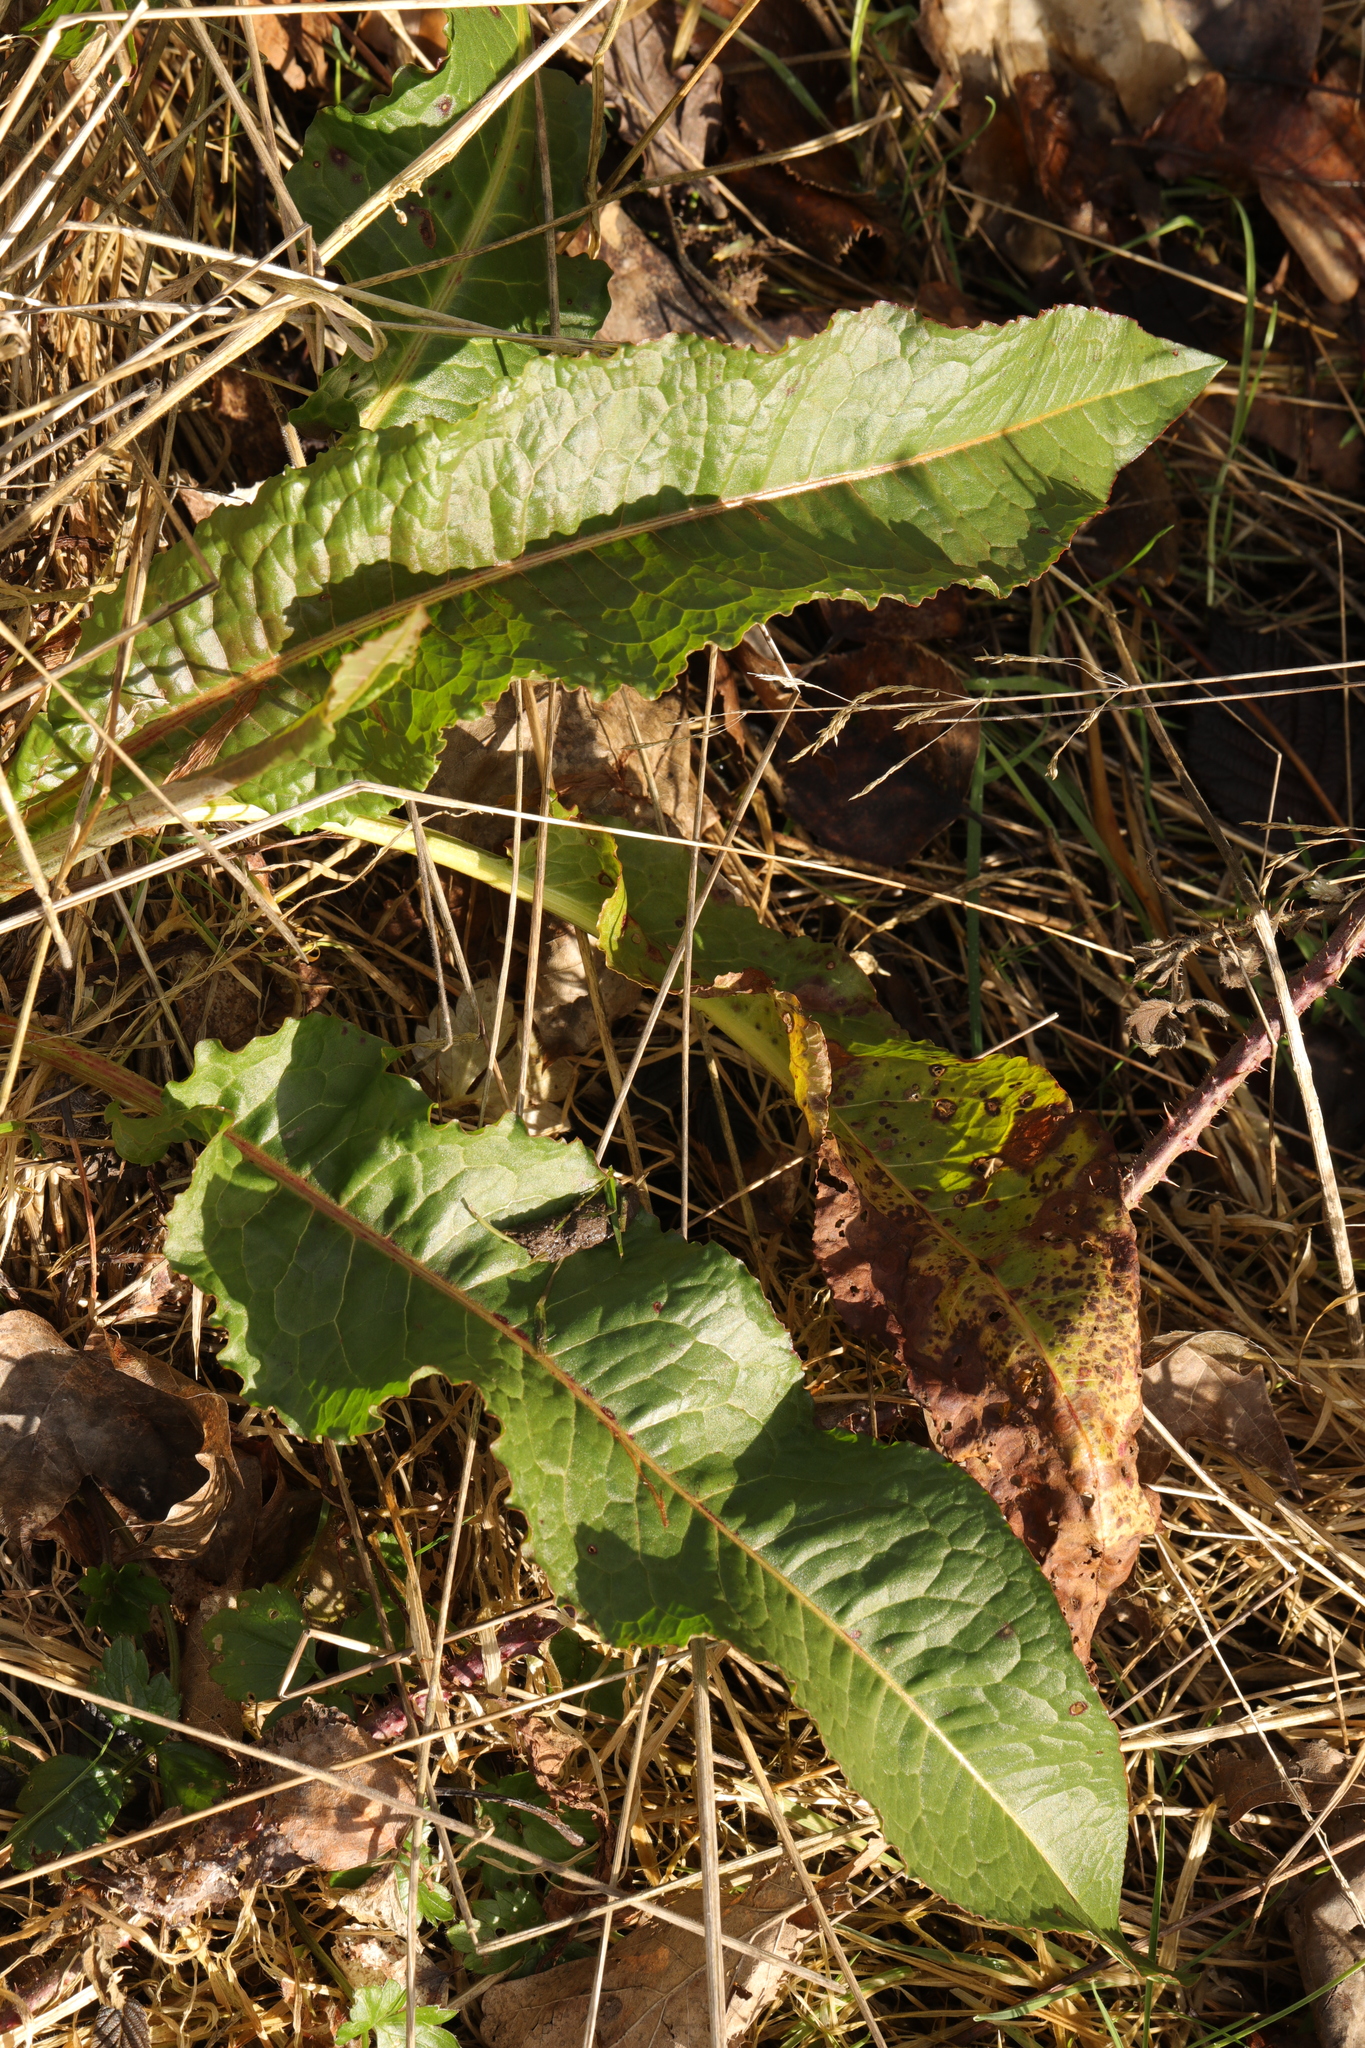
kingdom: Plantae
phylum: Tracheophyta
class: Magnoliopsida
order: Caryophyllales
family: Polygonaceae
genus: Rumex
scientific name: Rumex acutus
